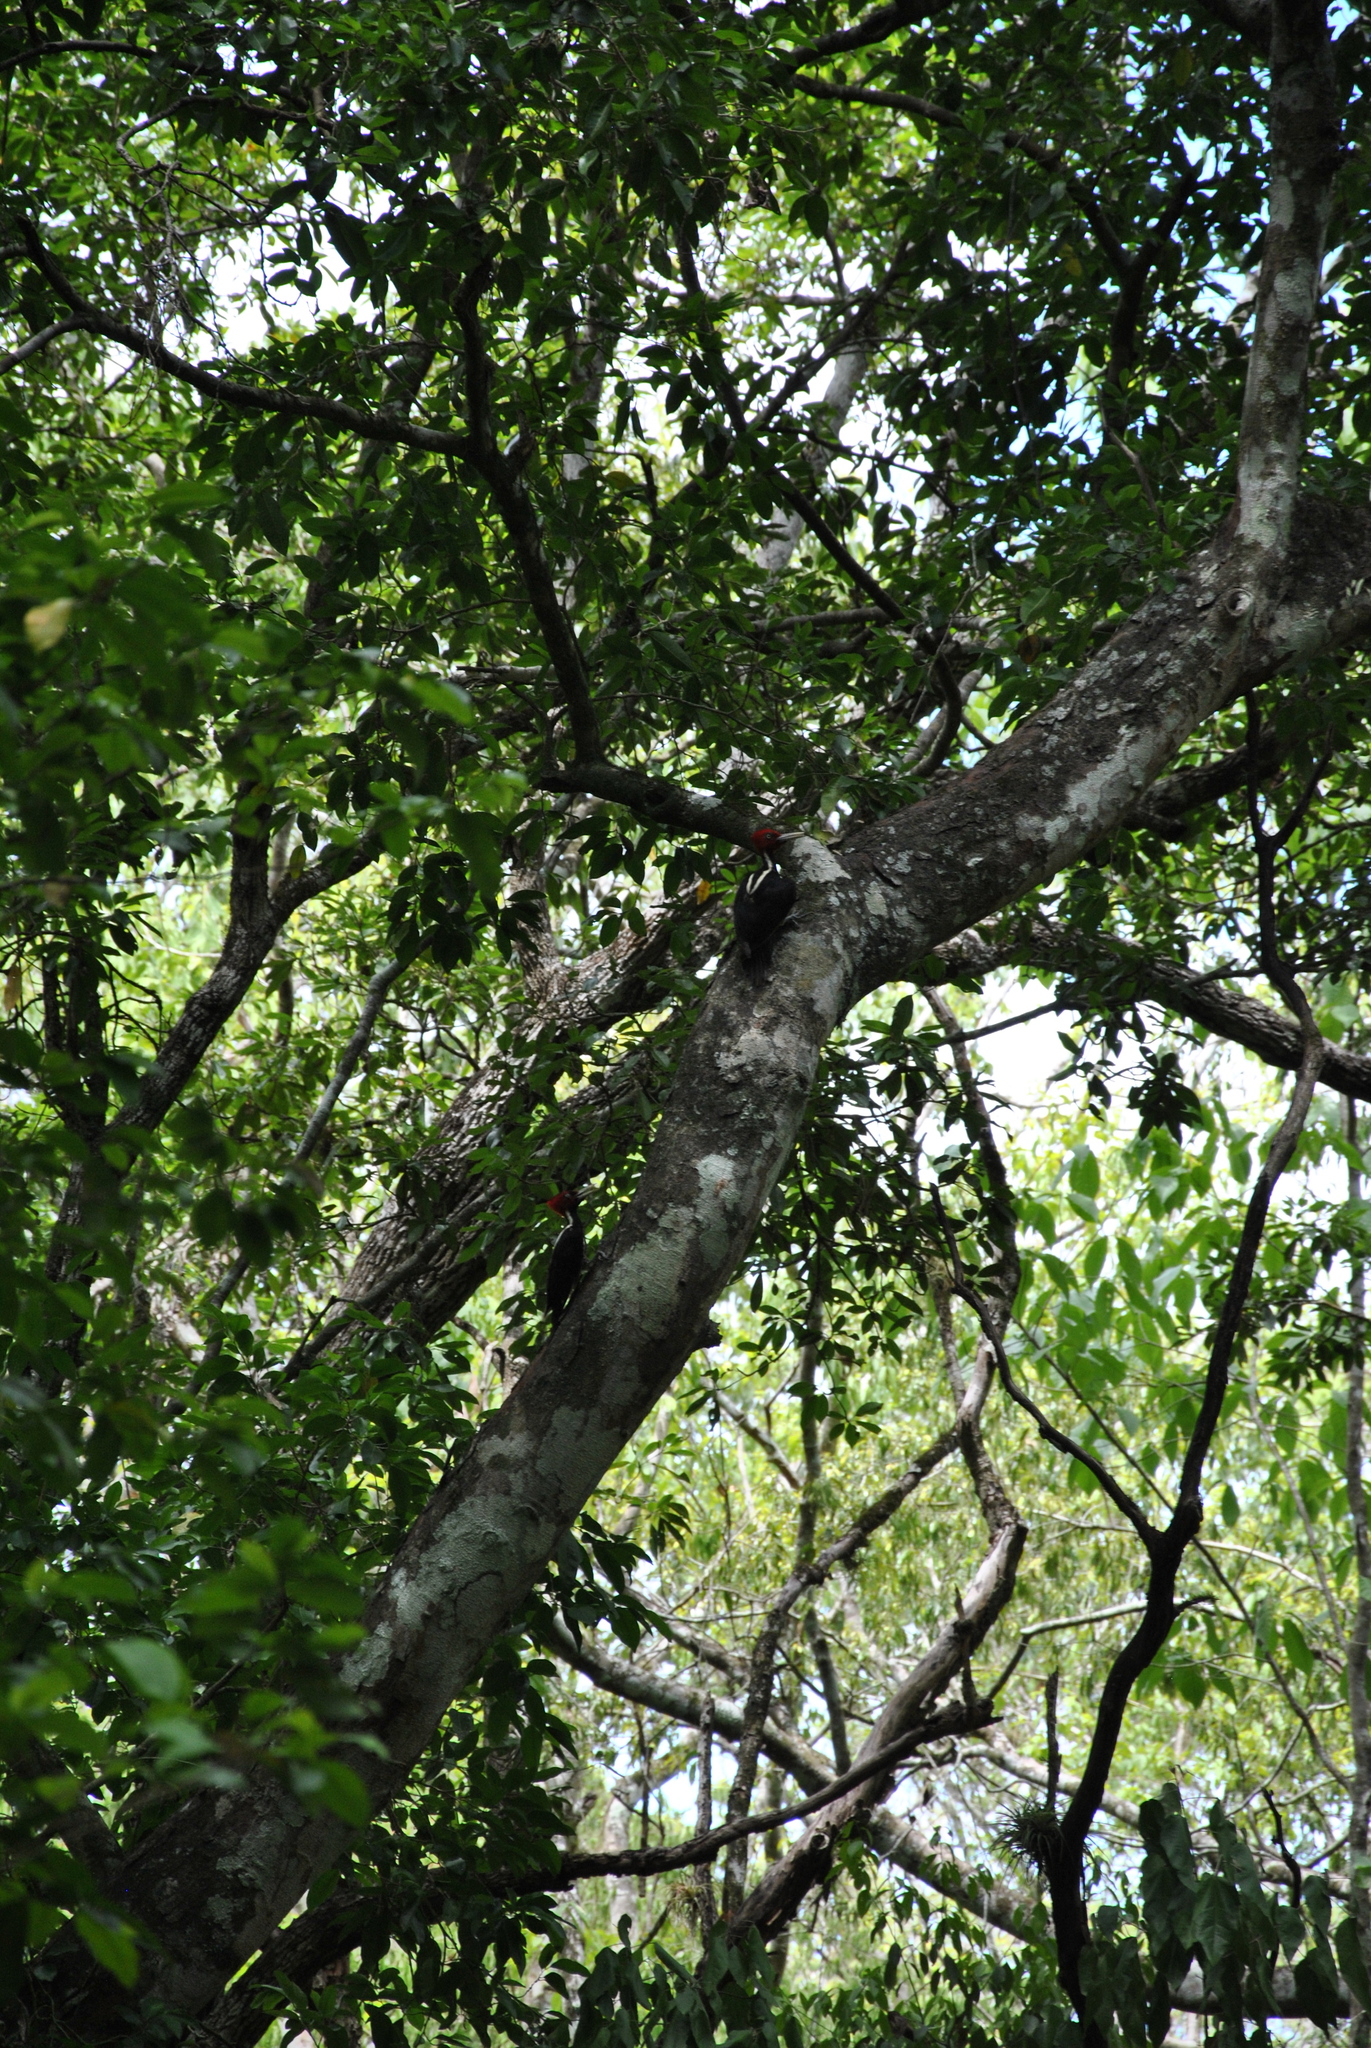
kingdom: Animalia
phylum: Chordata
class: Aves
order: Piciformes
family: Picidae
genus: Campephilus
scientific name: Campephilus guatemalensis
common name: Pale-billed woodpecker
